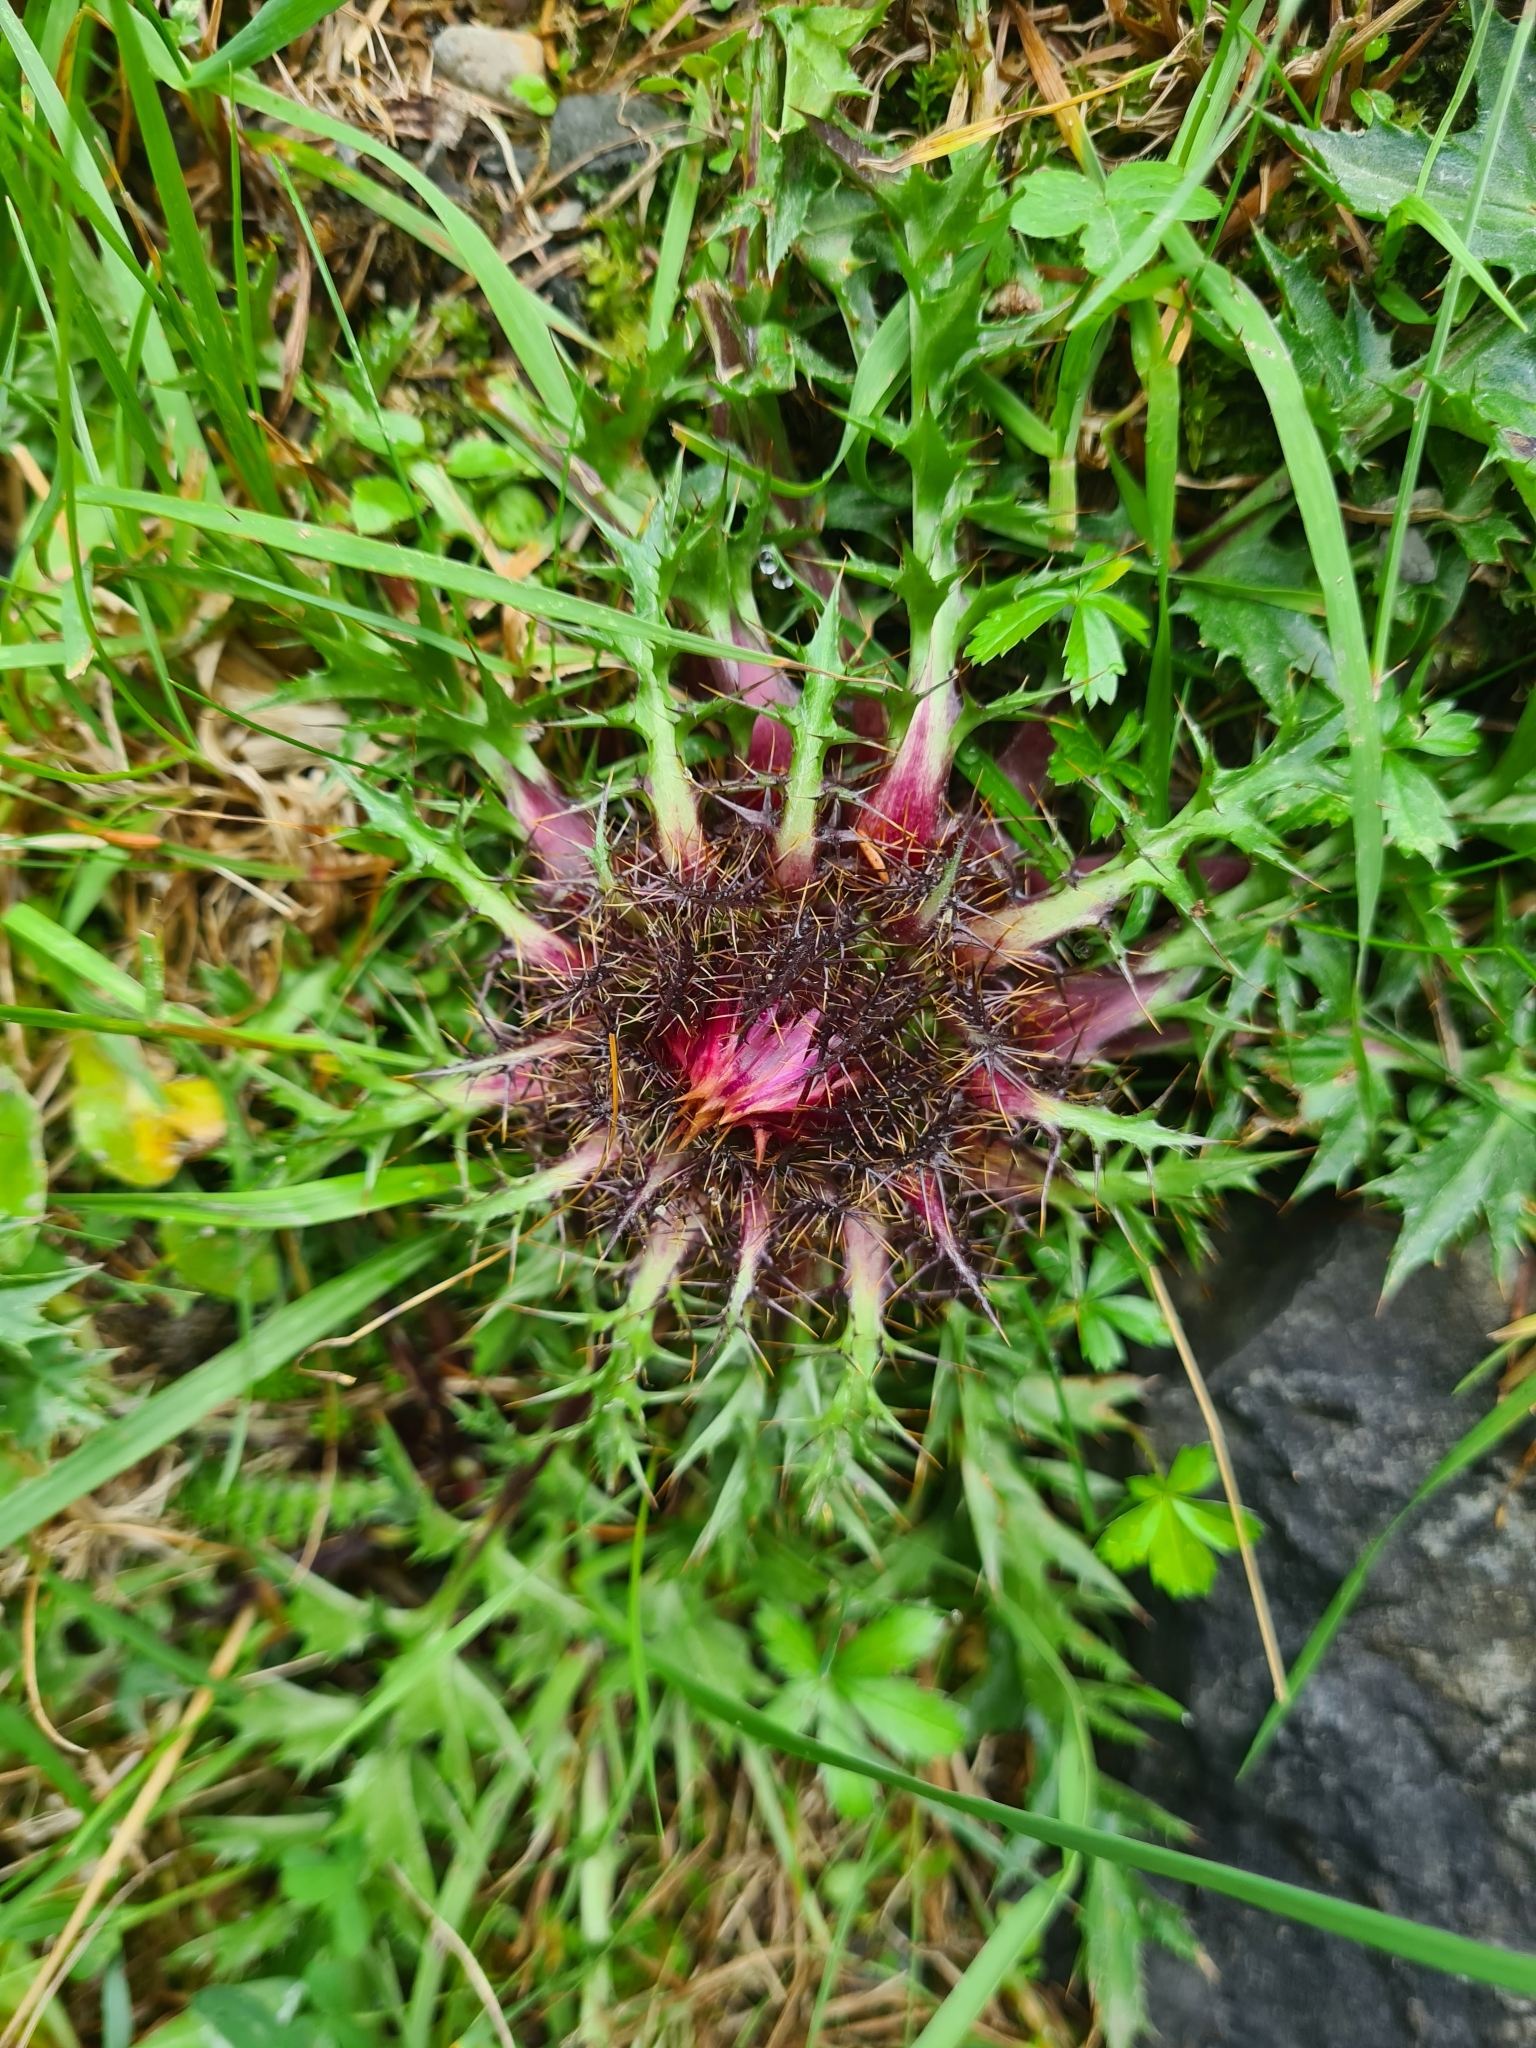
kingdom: Plantae
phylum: Tracheophyta
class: Magnoliopsida
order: Asterales
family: Asteraceae
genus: Carlina
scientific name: Carlina acaulis
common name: Stemless carline thistle
